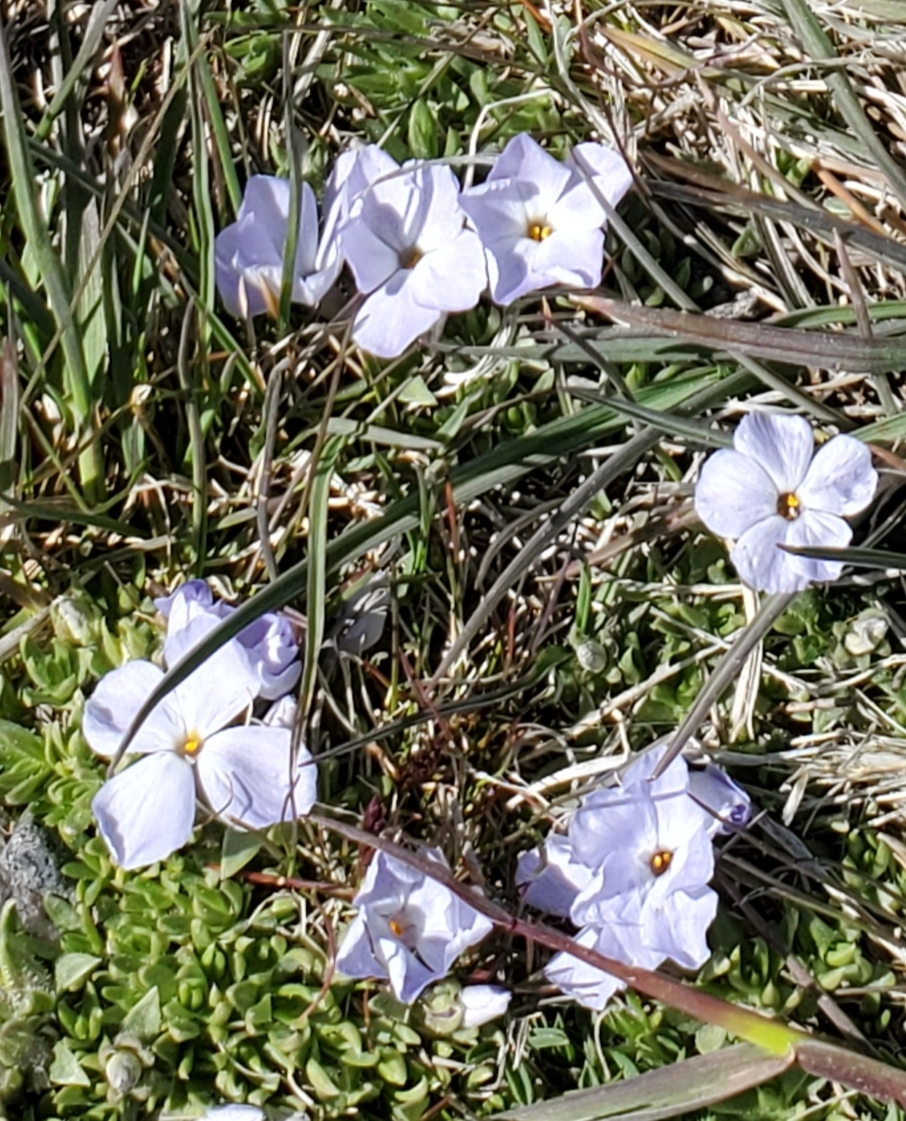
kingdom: Plantae
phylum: Tracheophyta
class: Magnoliopsida
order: Ericales
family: Polemoniaceae
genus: Phlox
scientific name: Phlox condensata
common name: Compact phlox
